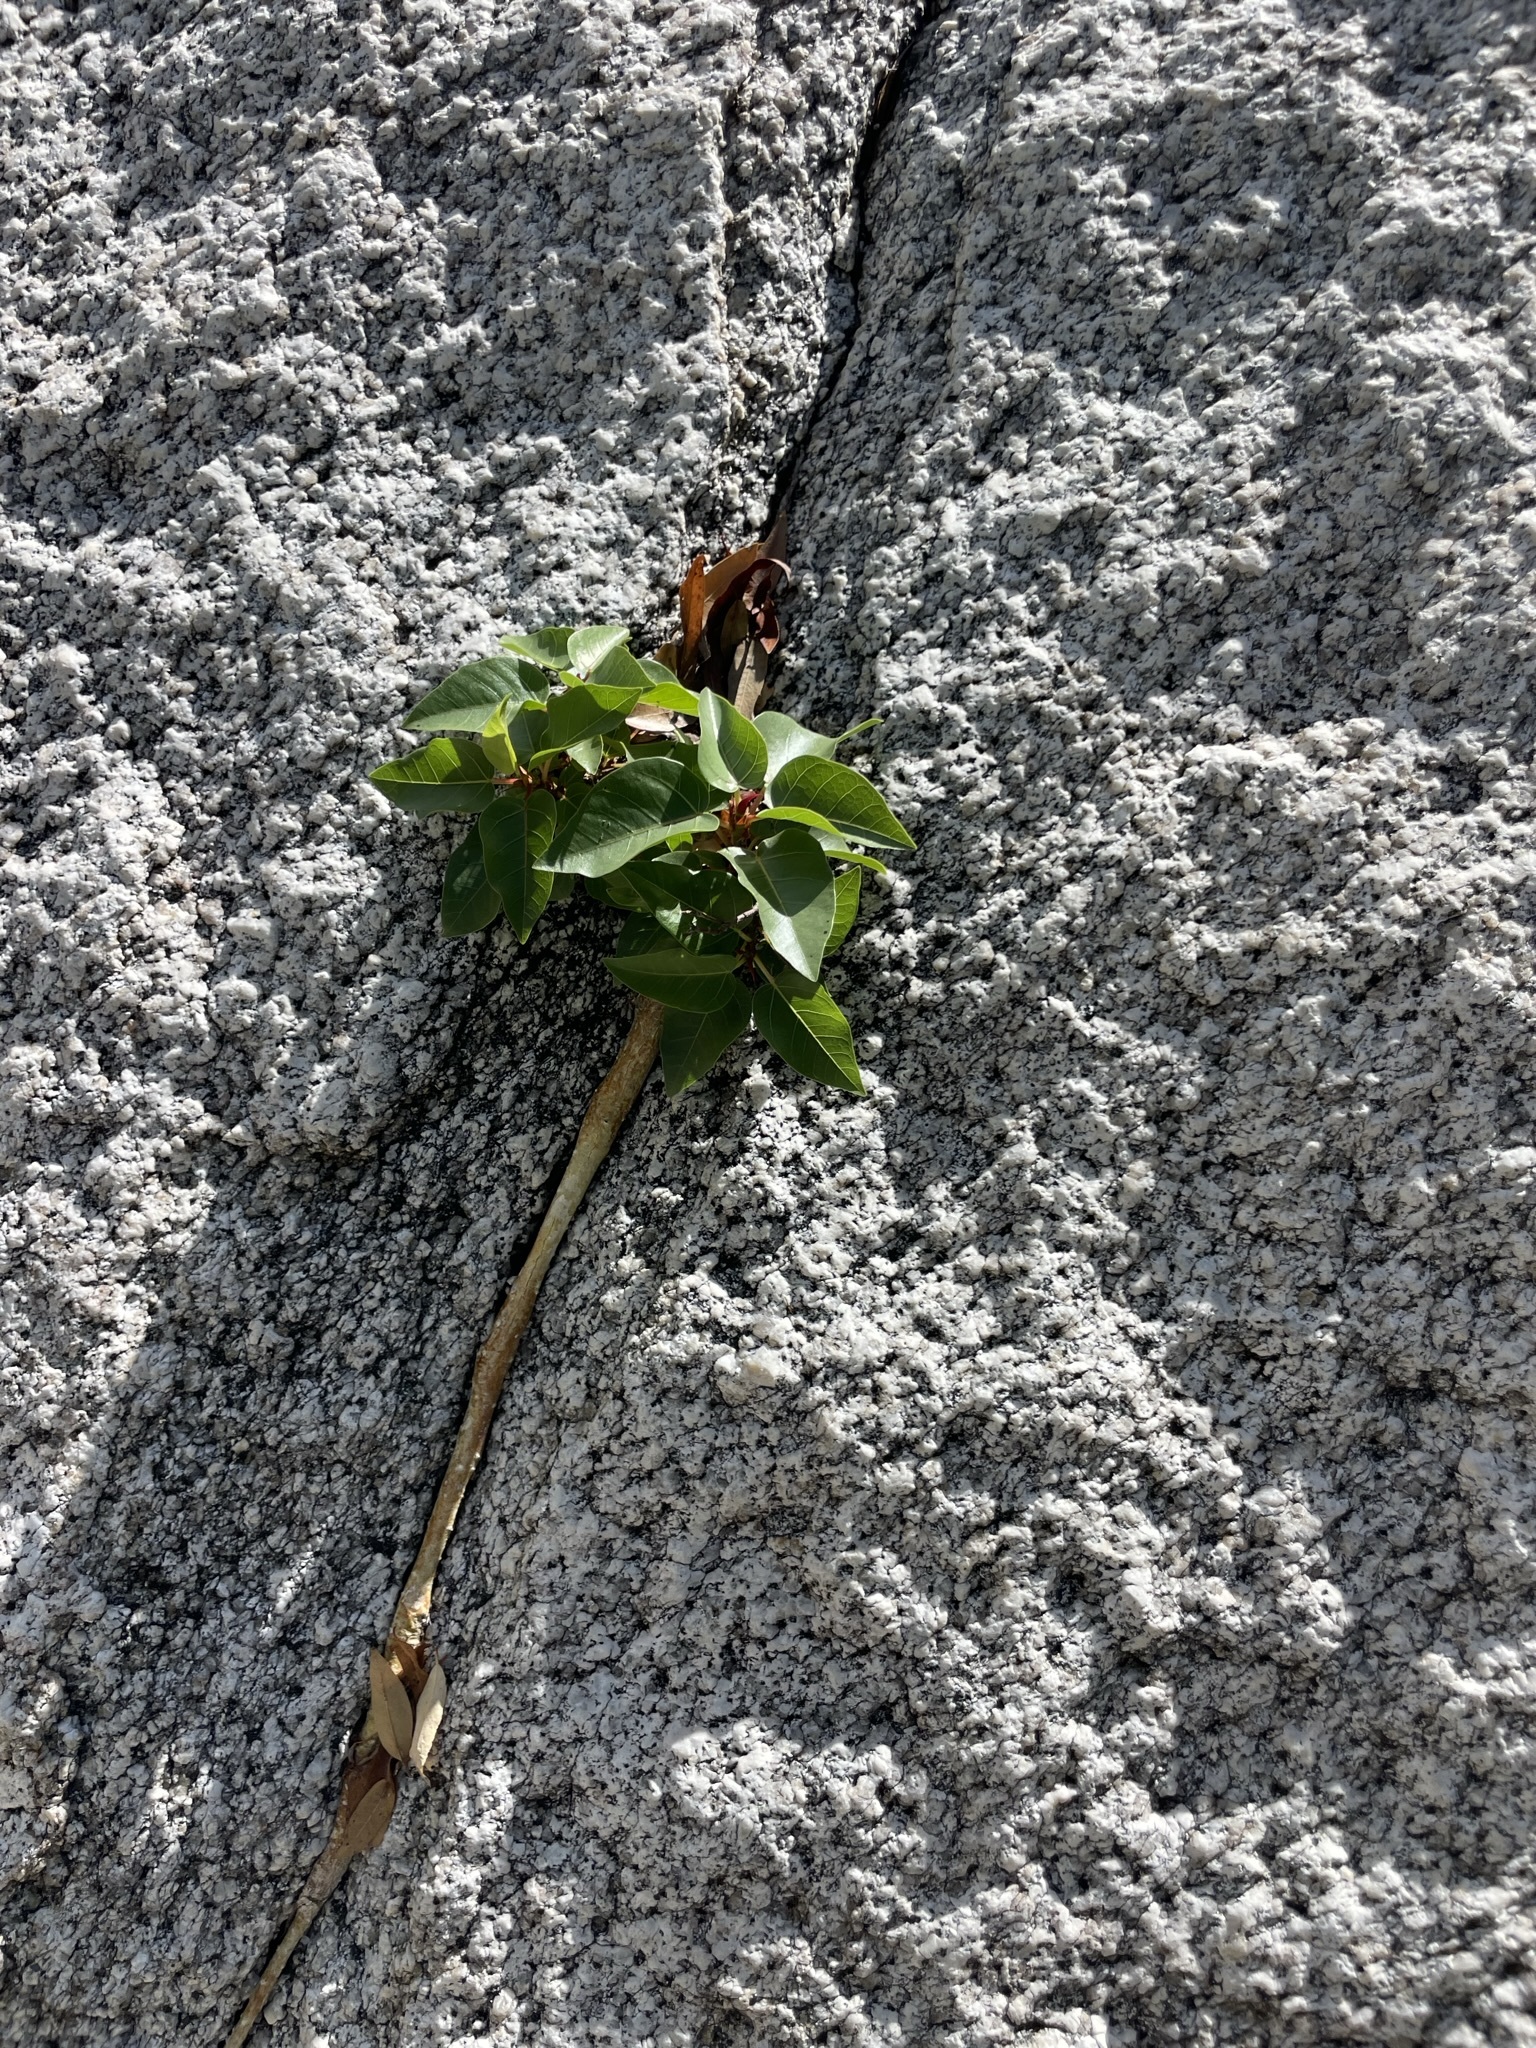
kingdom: Plantae
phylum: Tracheophyta
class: Magnoliopsida
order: Rosales
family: Moraceae
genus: Ficus
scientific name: Ficus petiolaris
